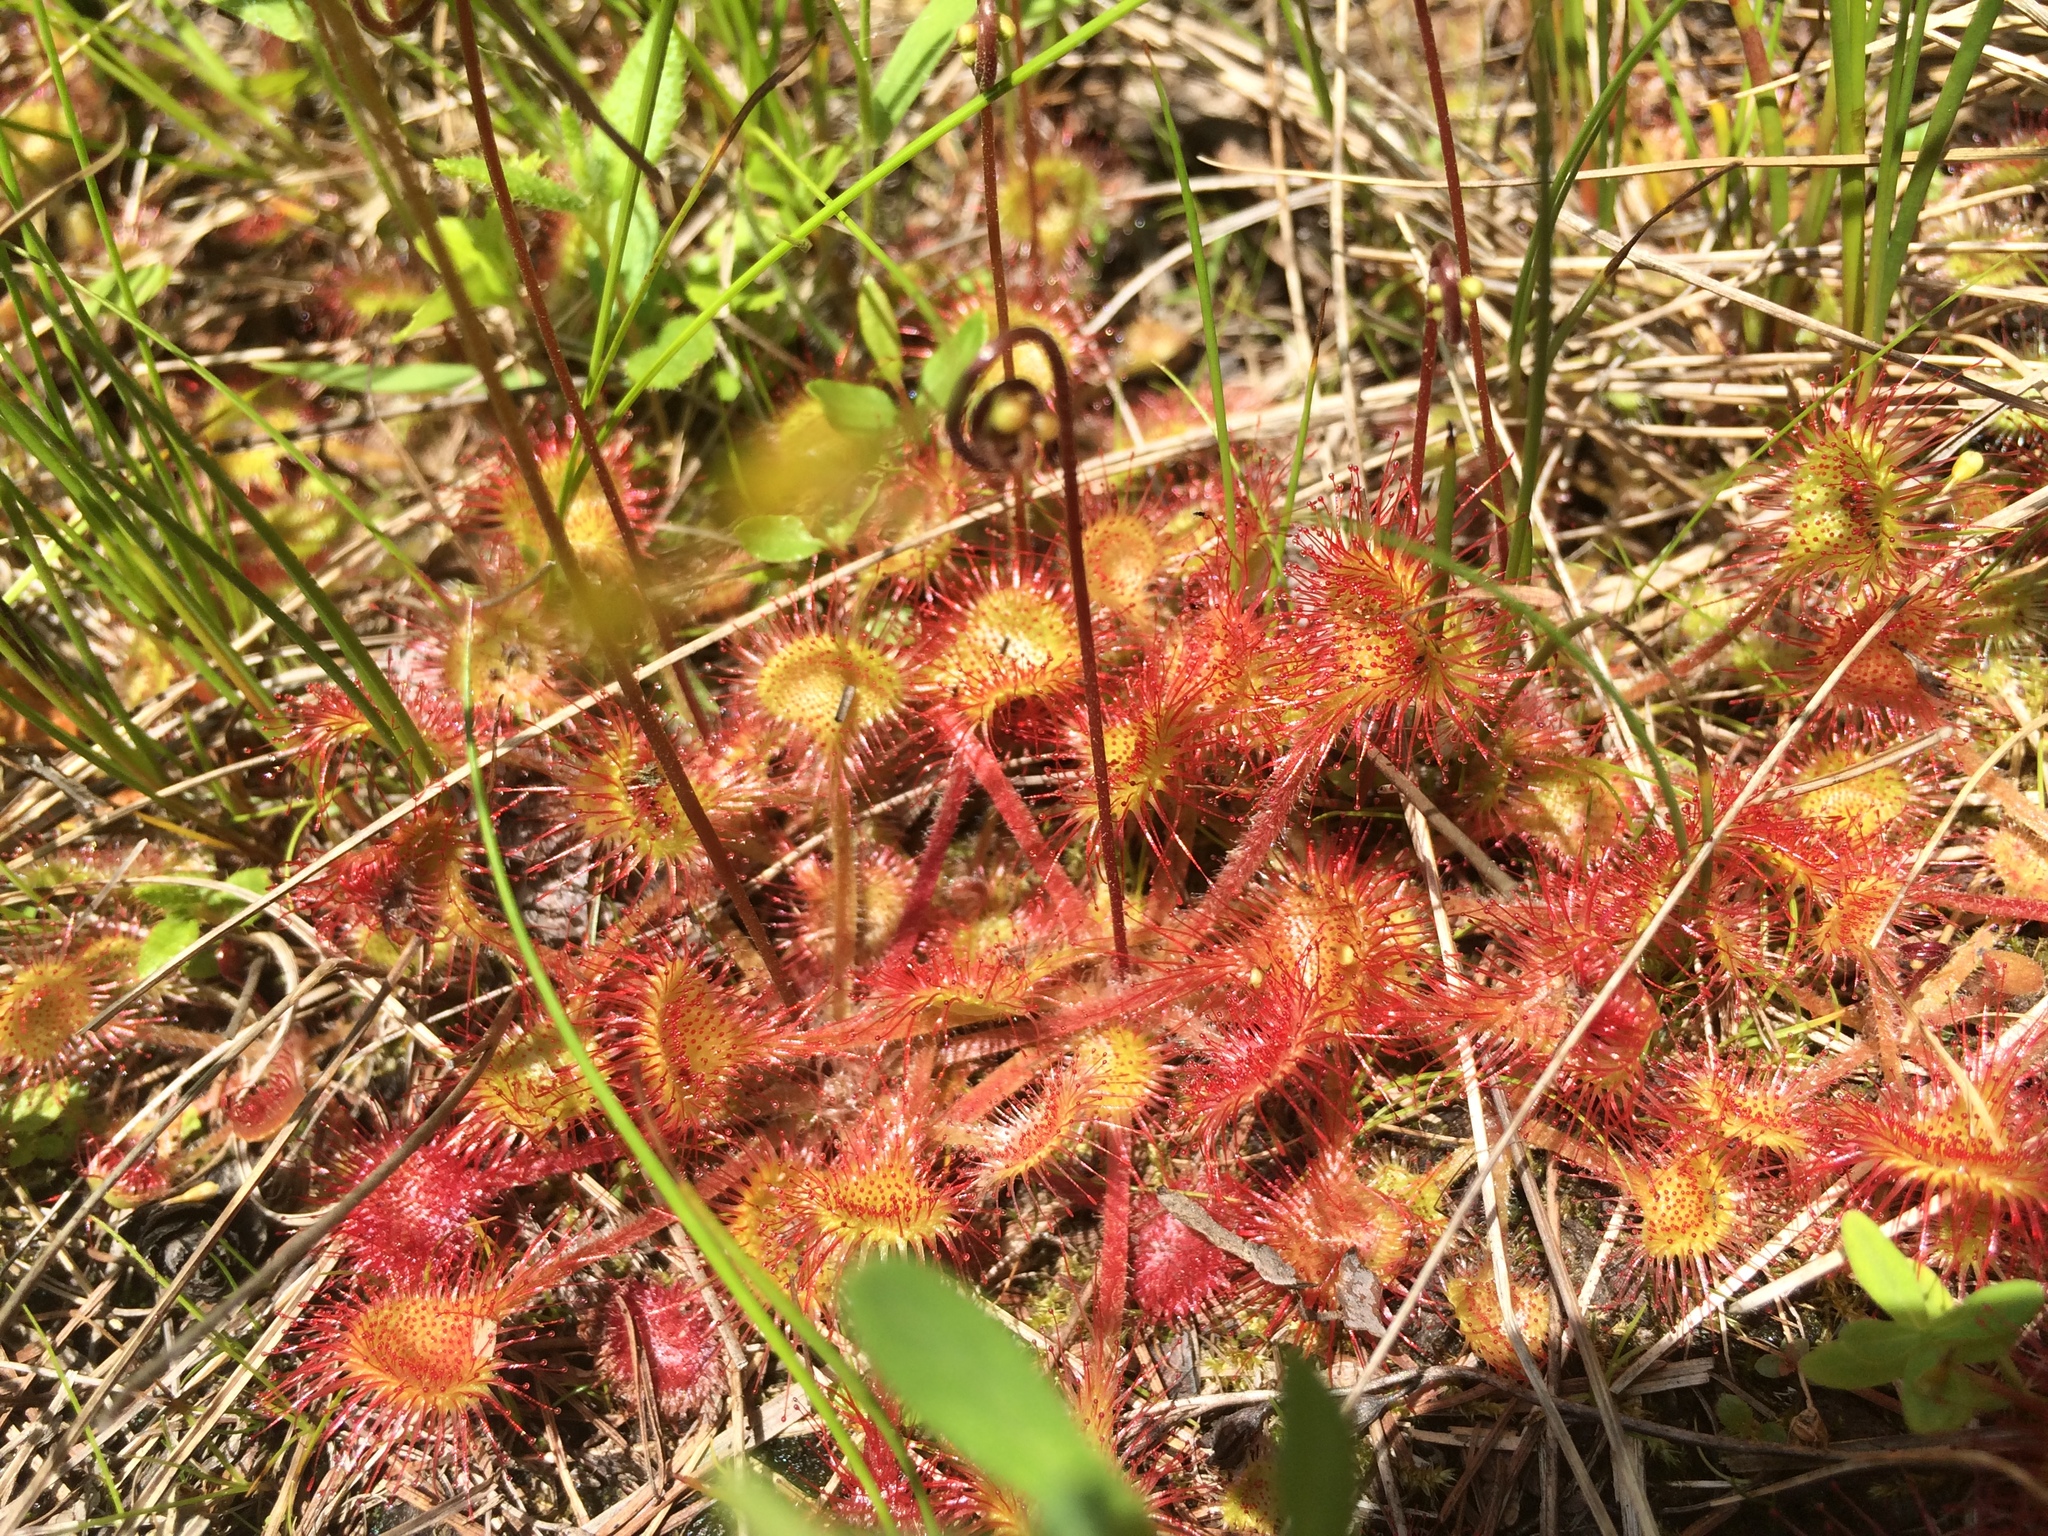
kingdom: Plantae
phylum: Tracheophyta
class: Magnoliopsida
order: Caryophyllales
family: Droseraceae
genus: Drosera
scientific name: Drosera rotundifolia
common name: Round-leaved sundew
